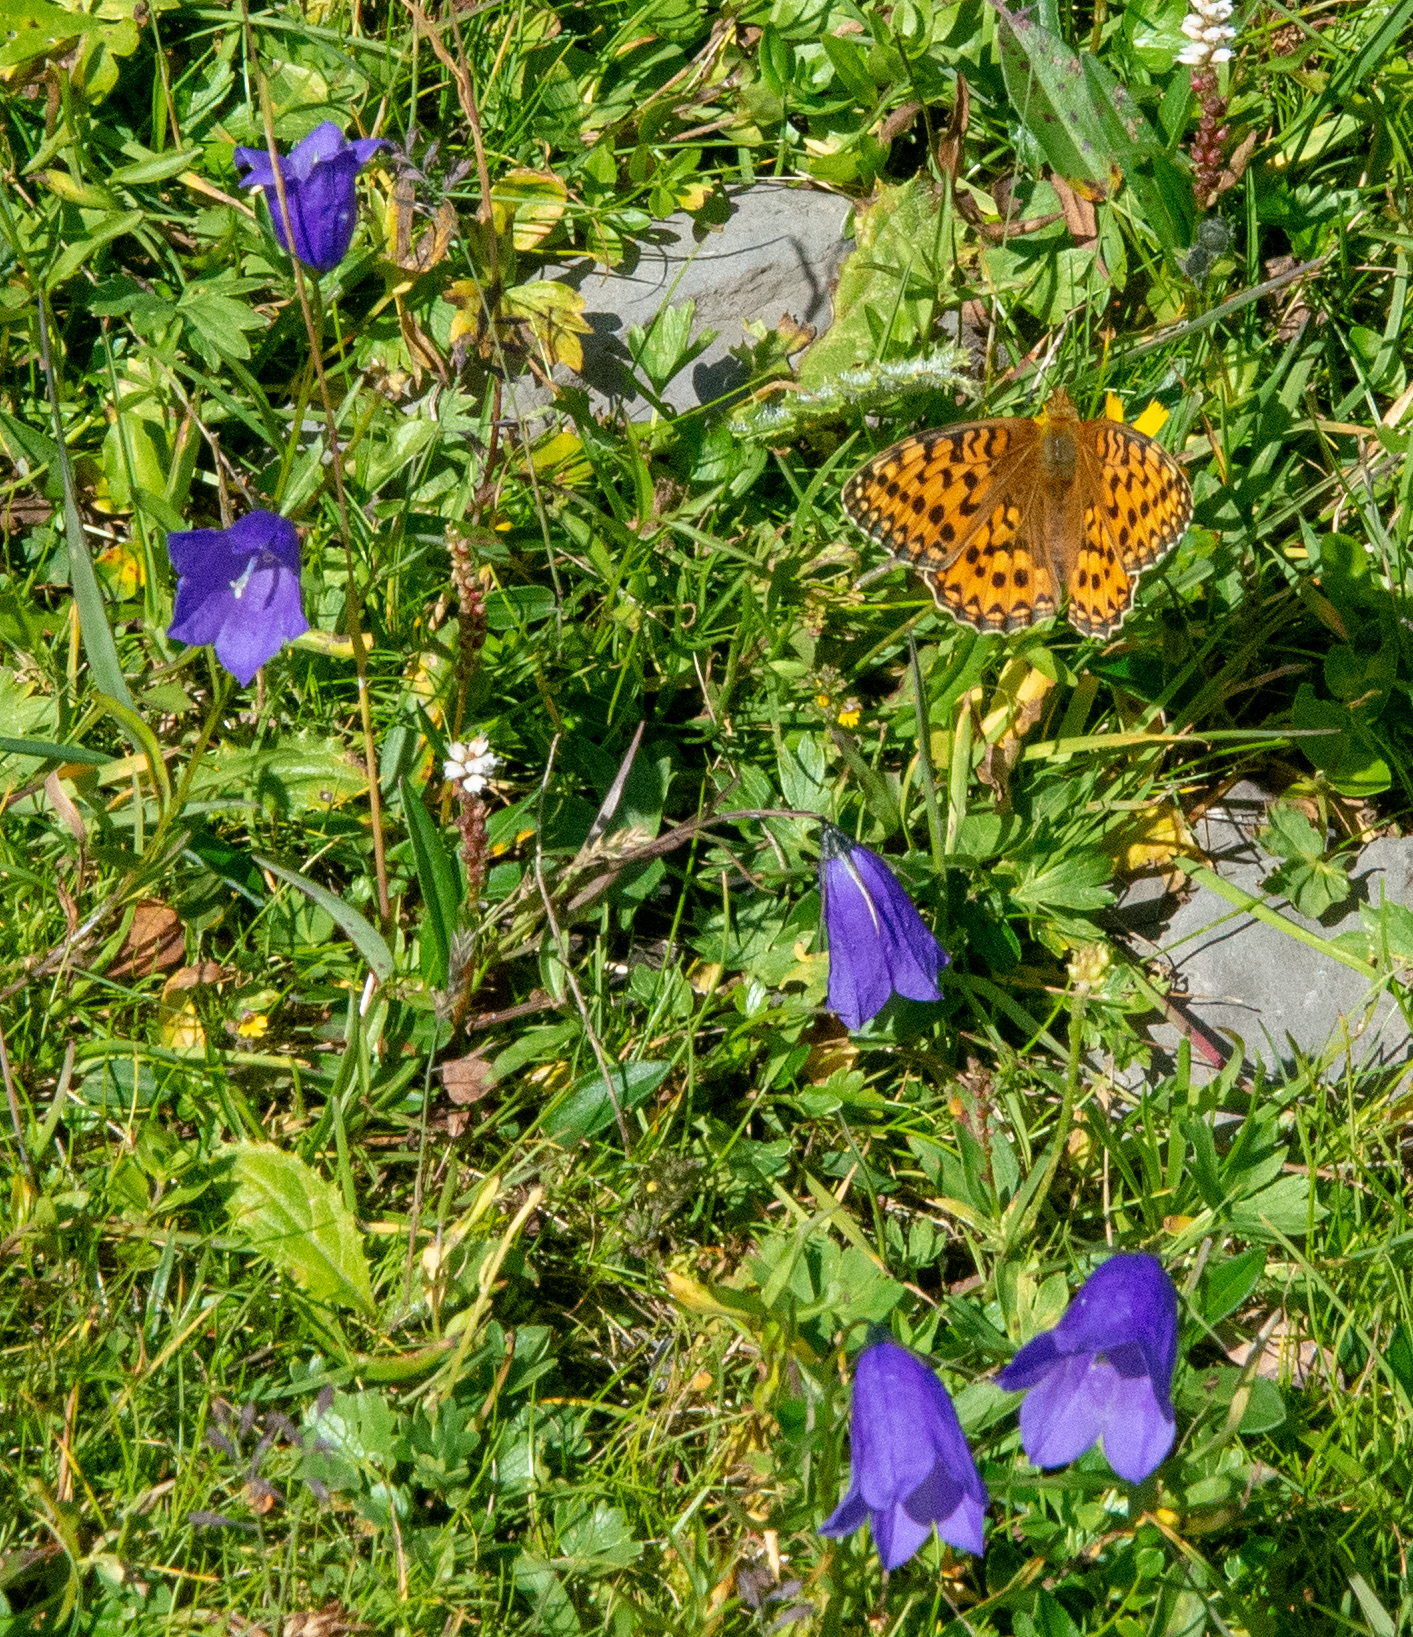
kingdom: Plantae
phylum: Tracheophyta
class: Magnoliopsida
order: Asterales
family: Campanulaceae
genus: Campanula
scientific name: Campanula scheuchzeri
